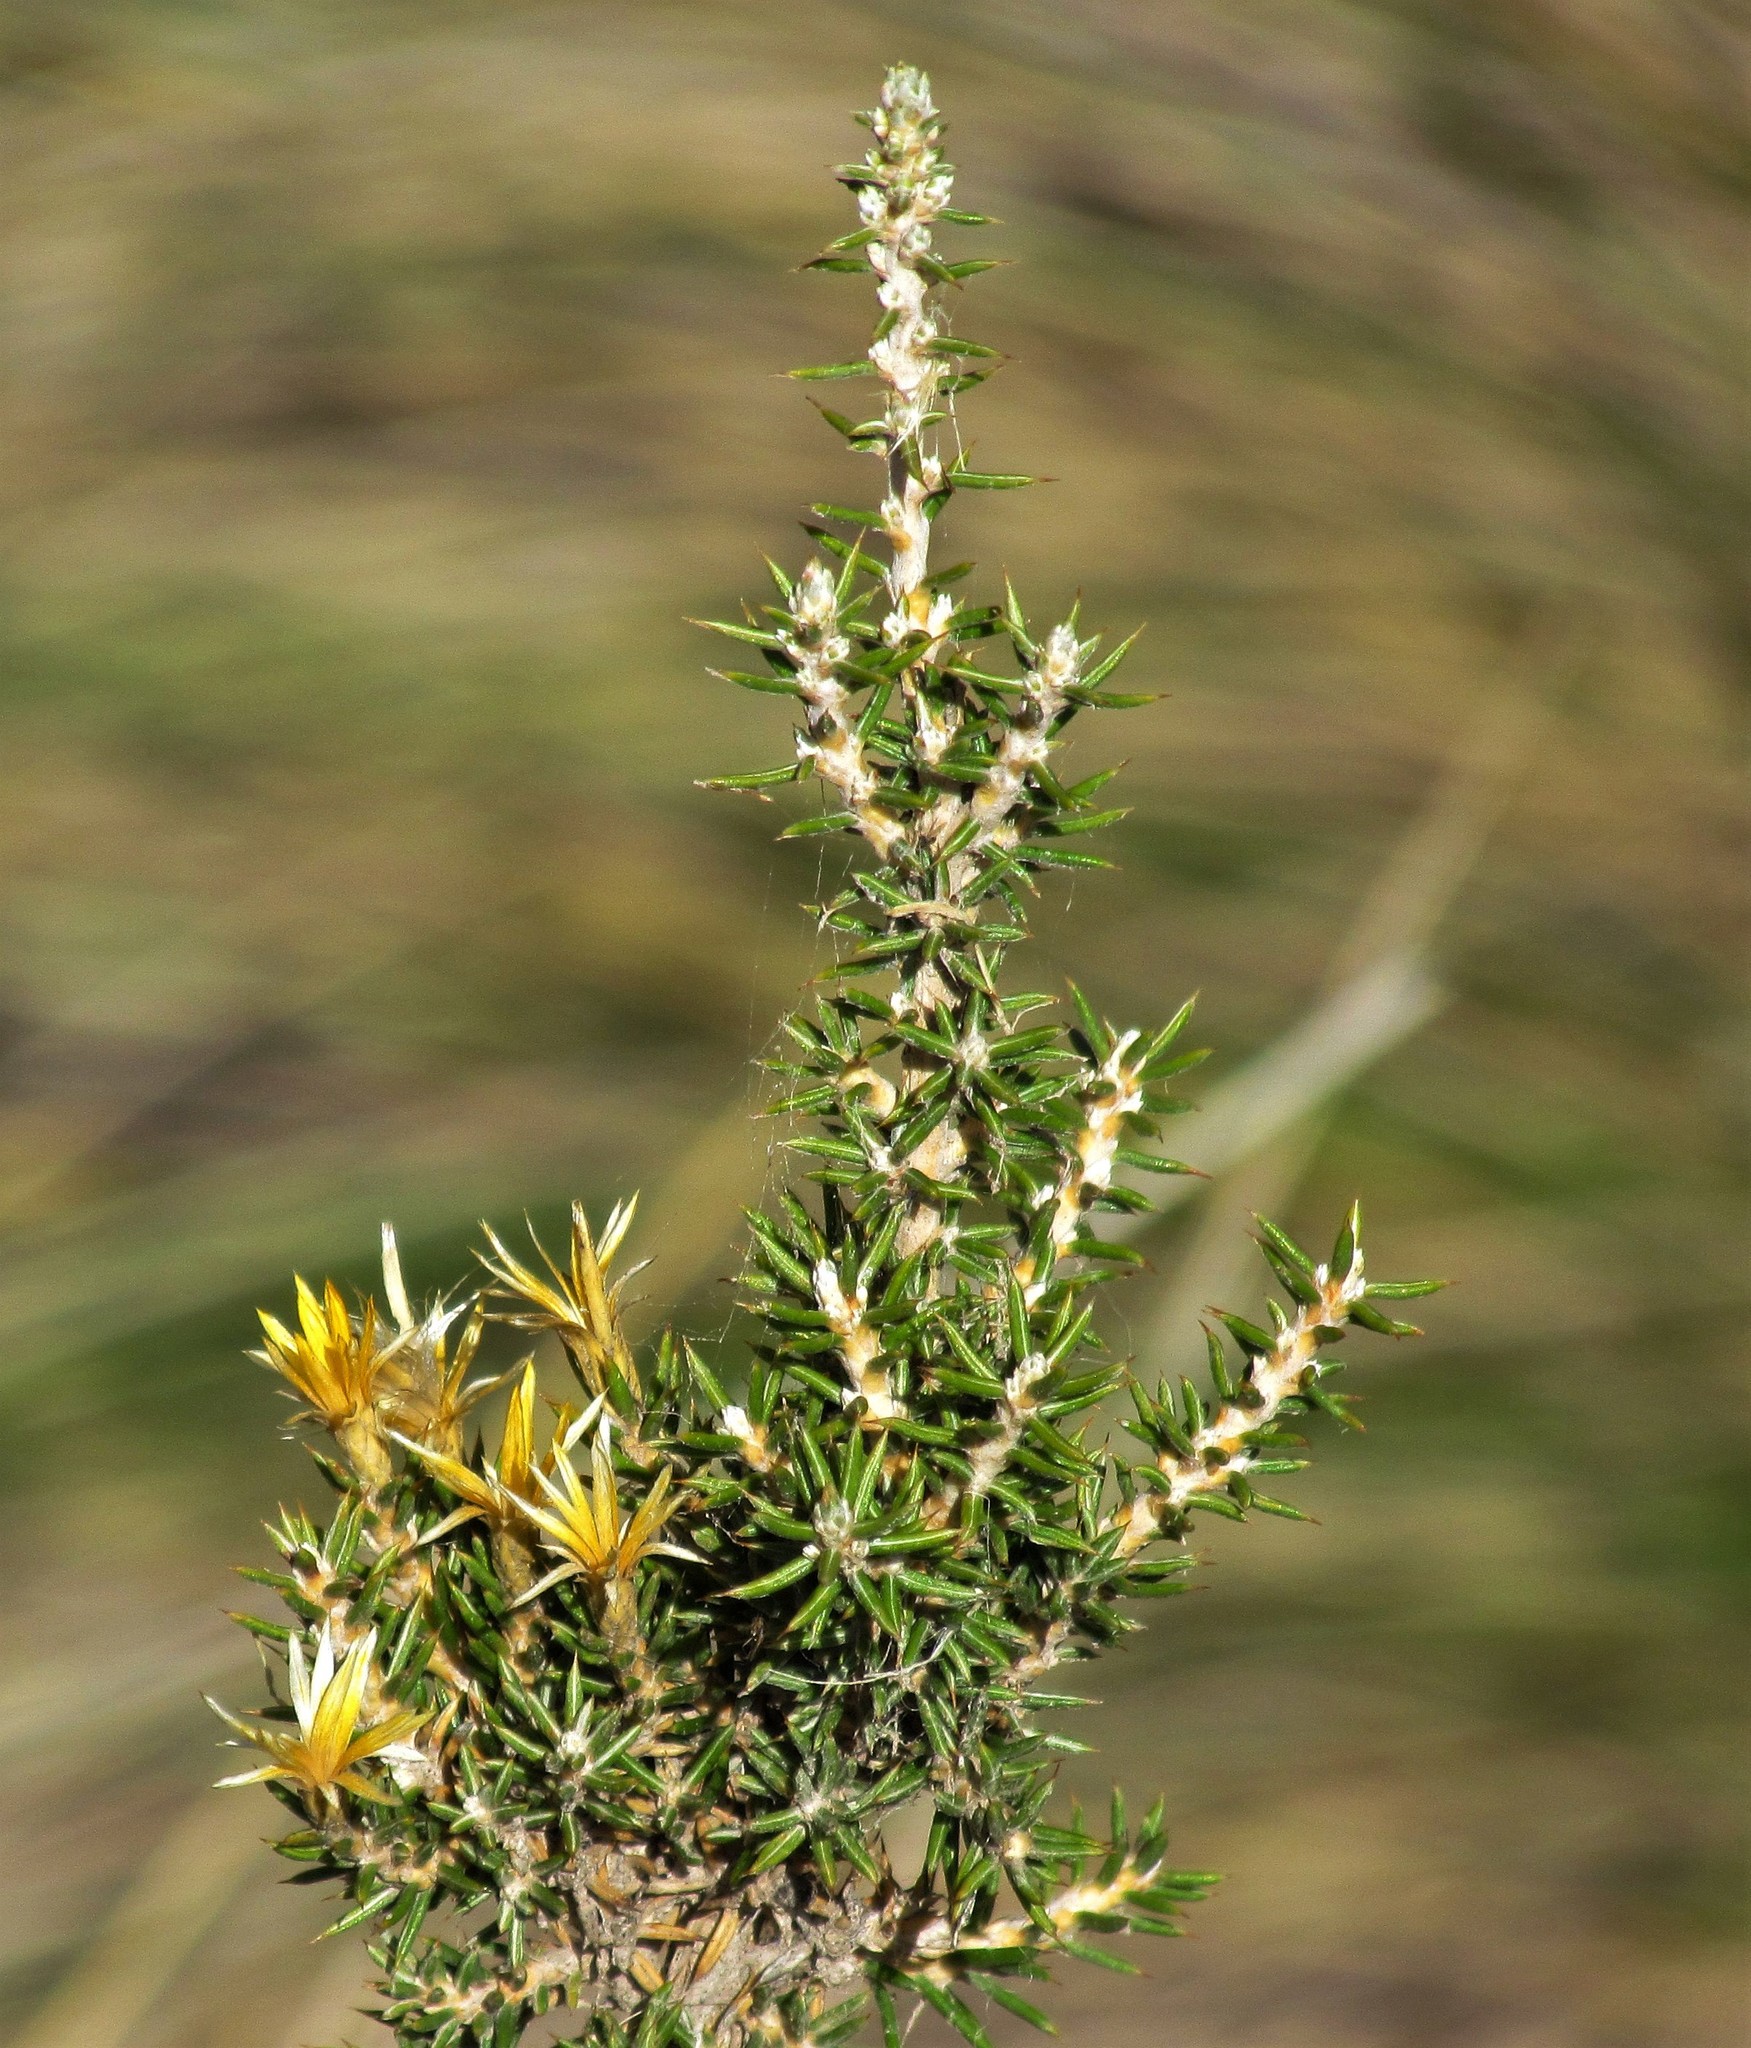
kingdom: Plantae
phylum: Tracheophyta
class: Magnoliopsida
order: Asterales
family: Asteraceae
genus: Chuquiraga
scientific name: Chuquiraga erinacea
